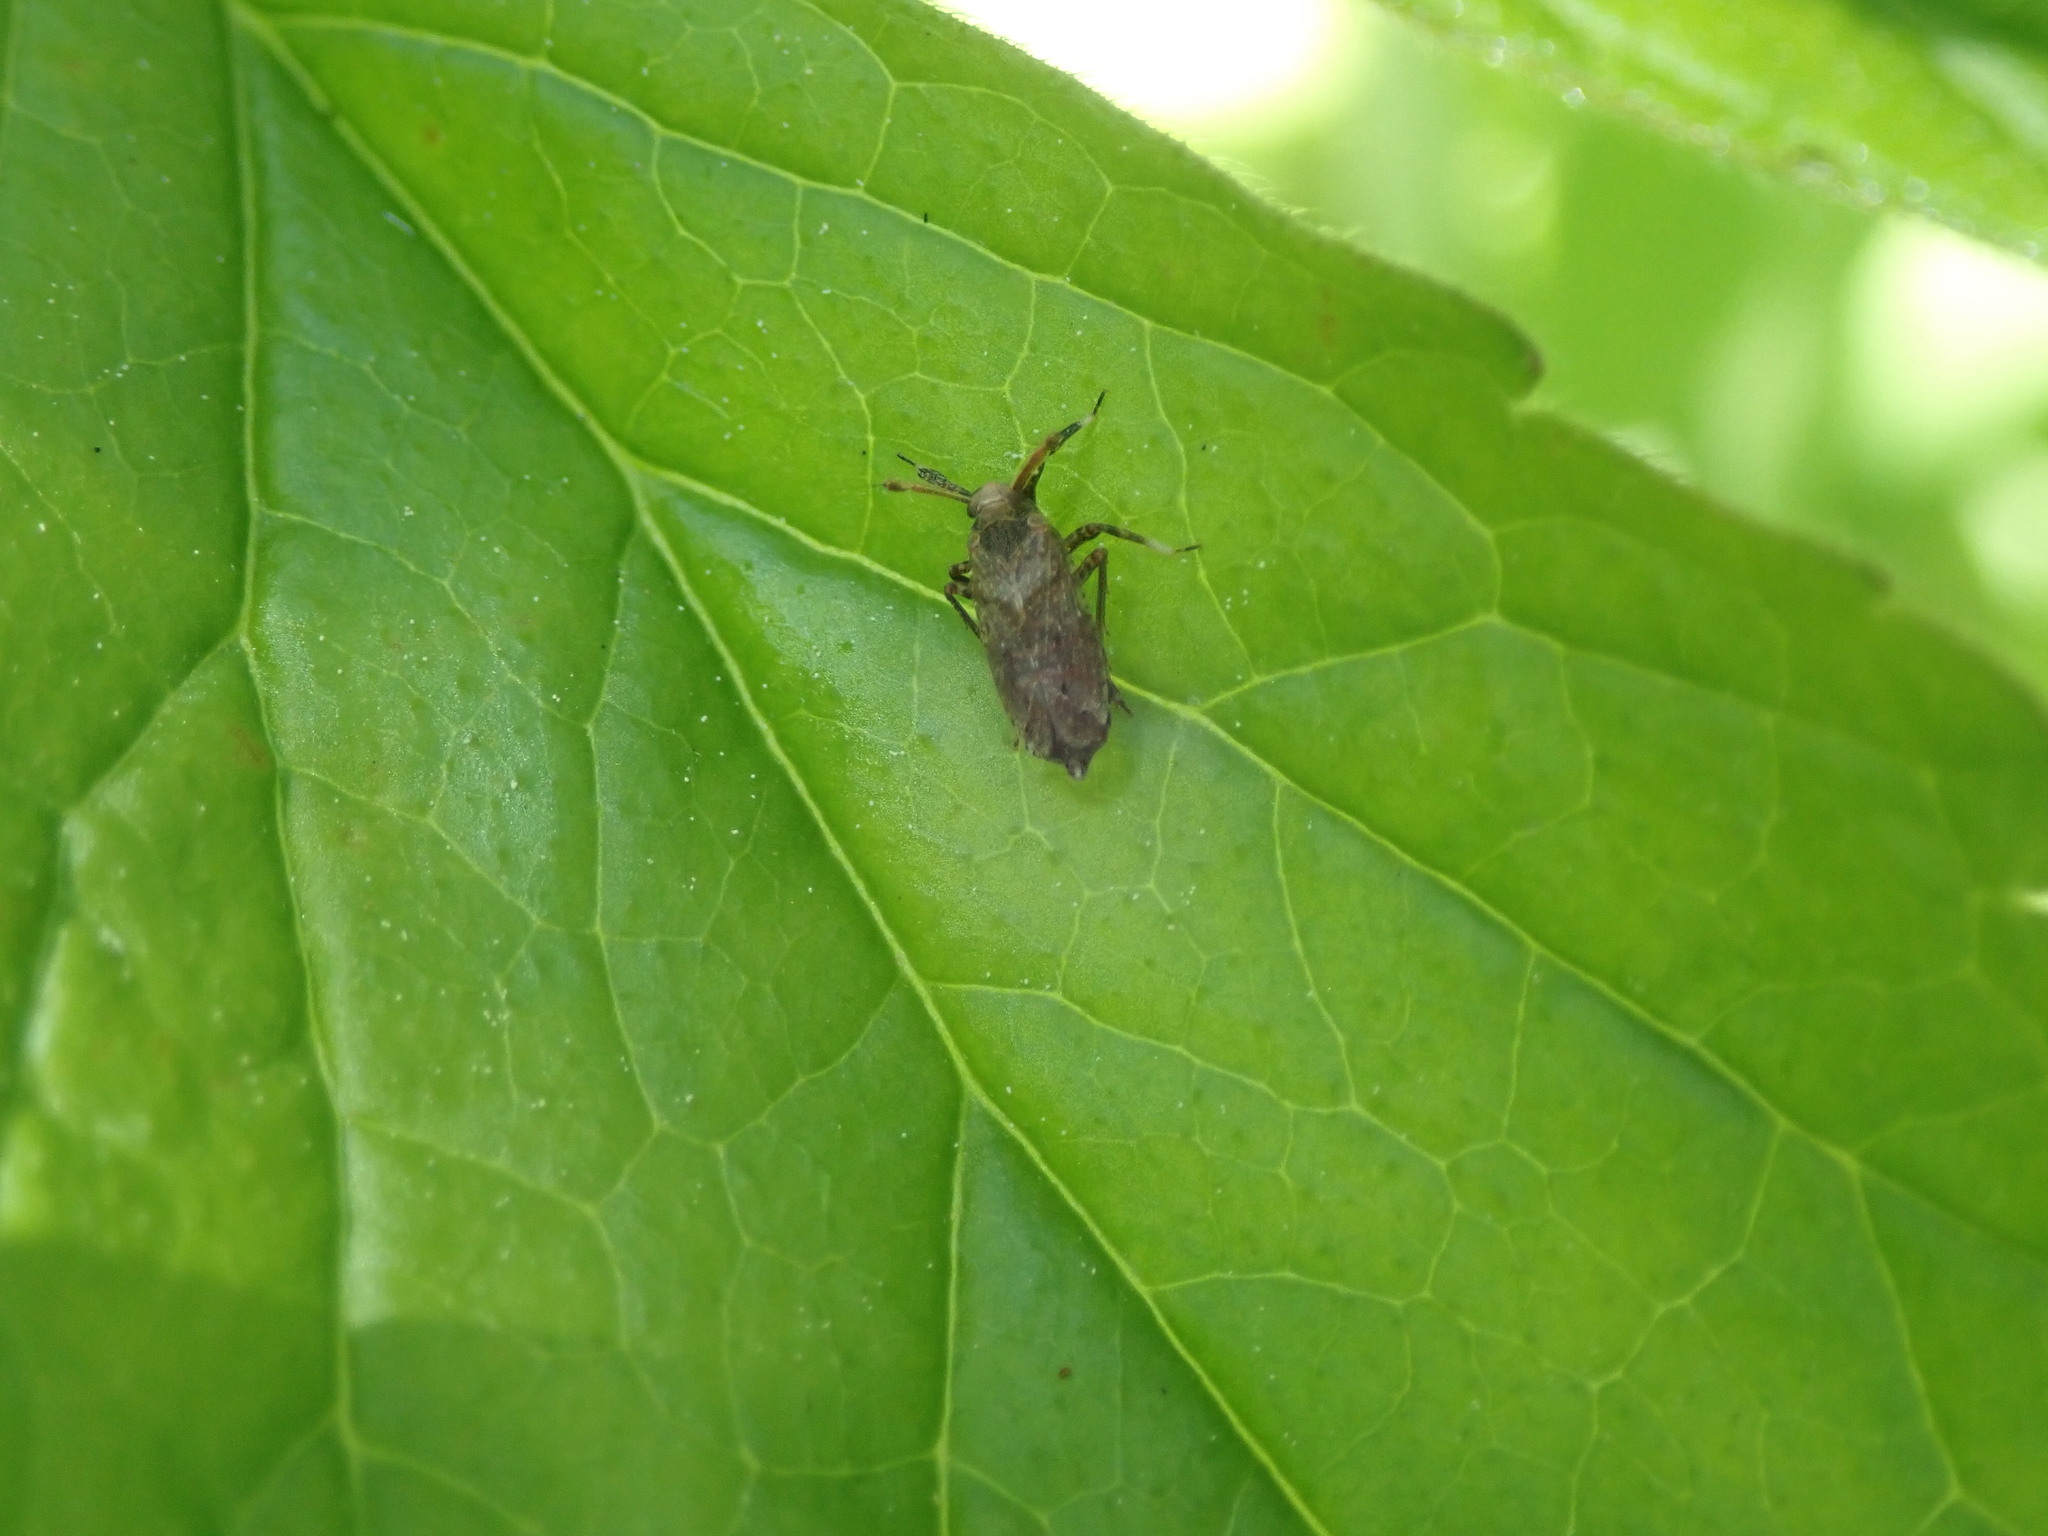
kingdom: Animalia
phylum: Arthropoda
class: Insecta
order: Hemiptera
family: Delphacidae
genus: Asiraca
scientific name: Asiraca clavicornis
